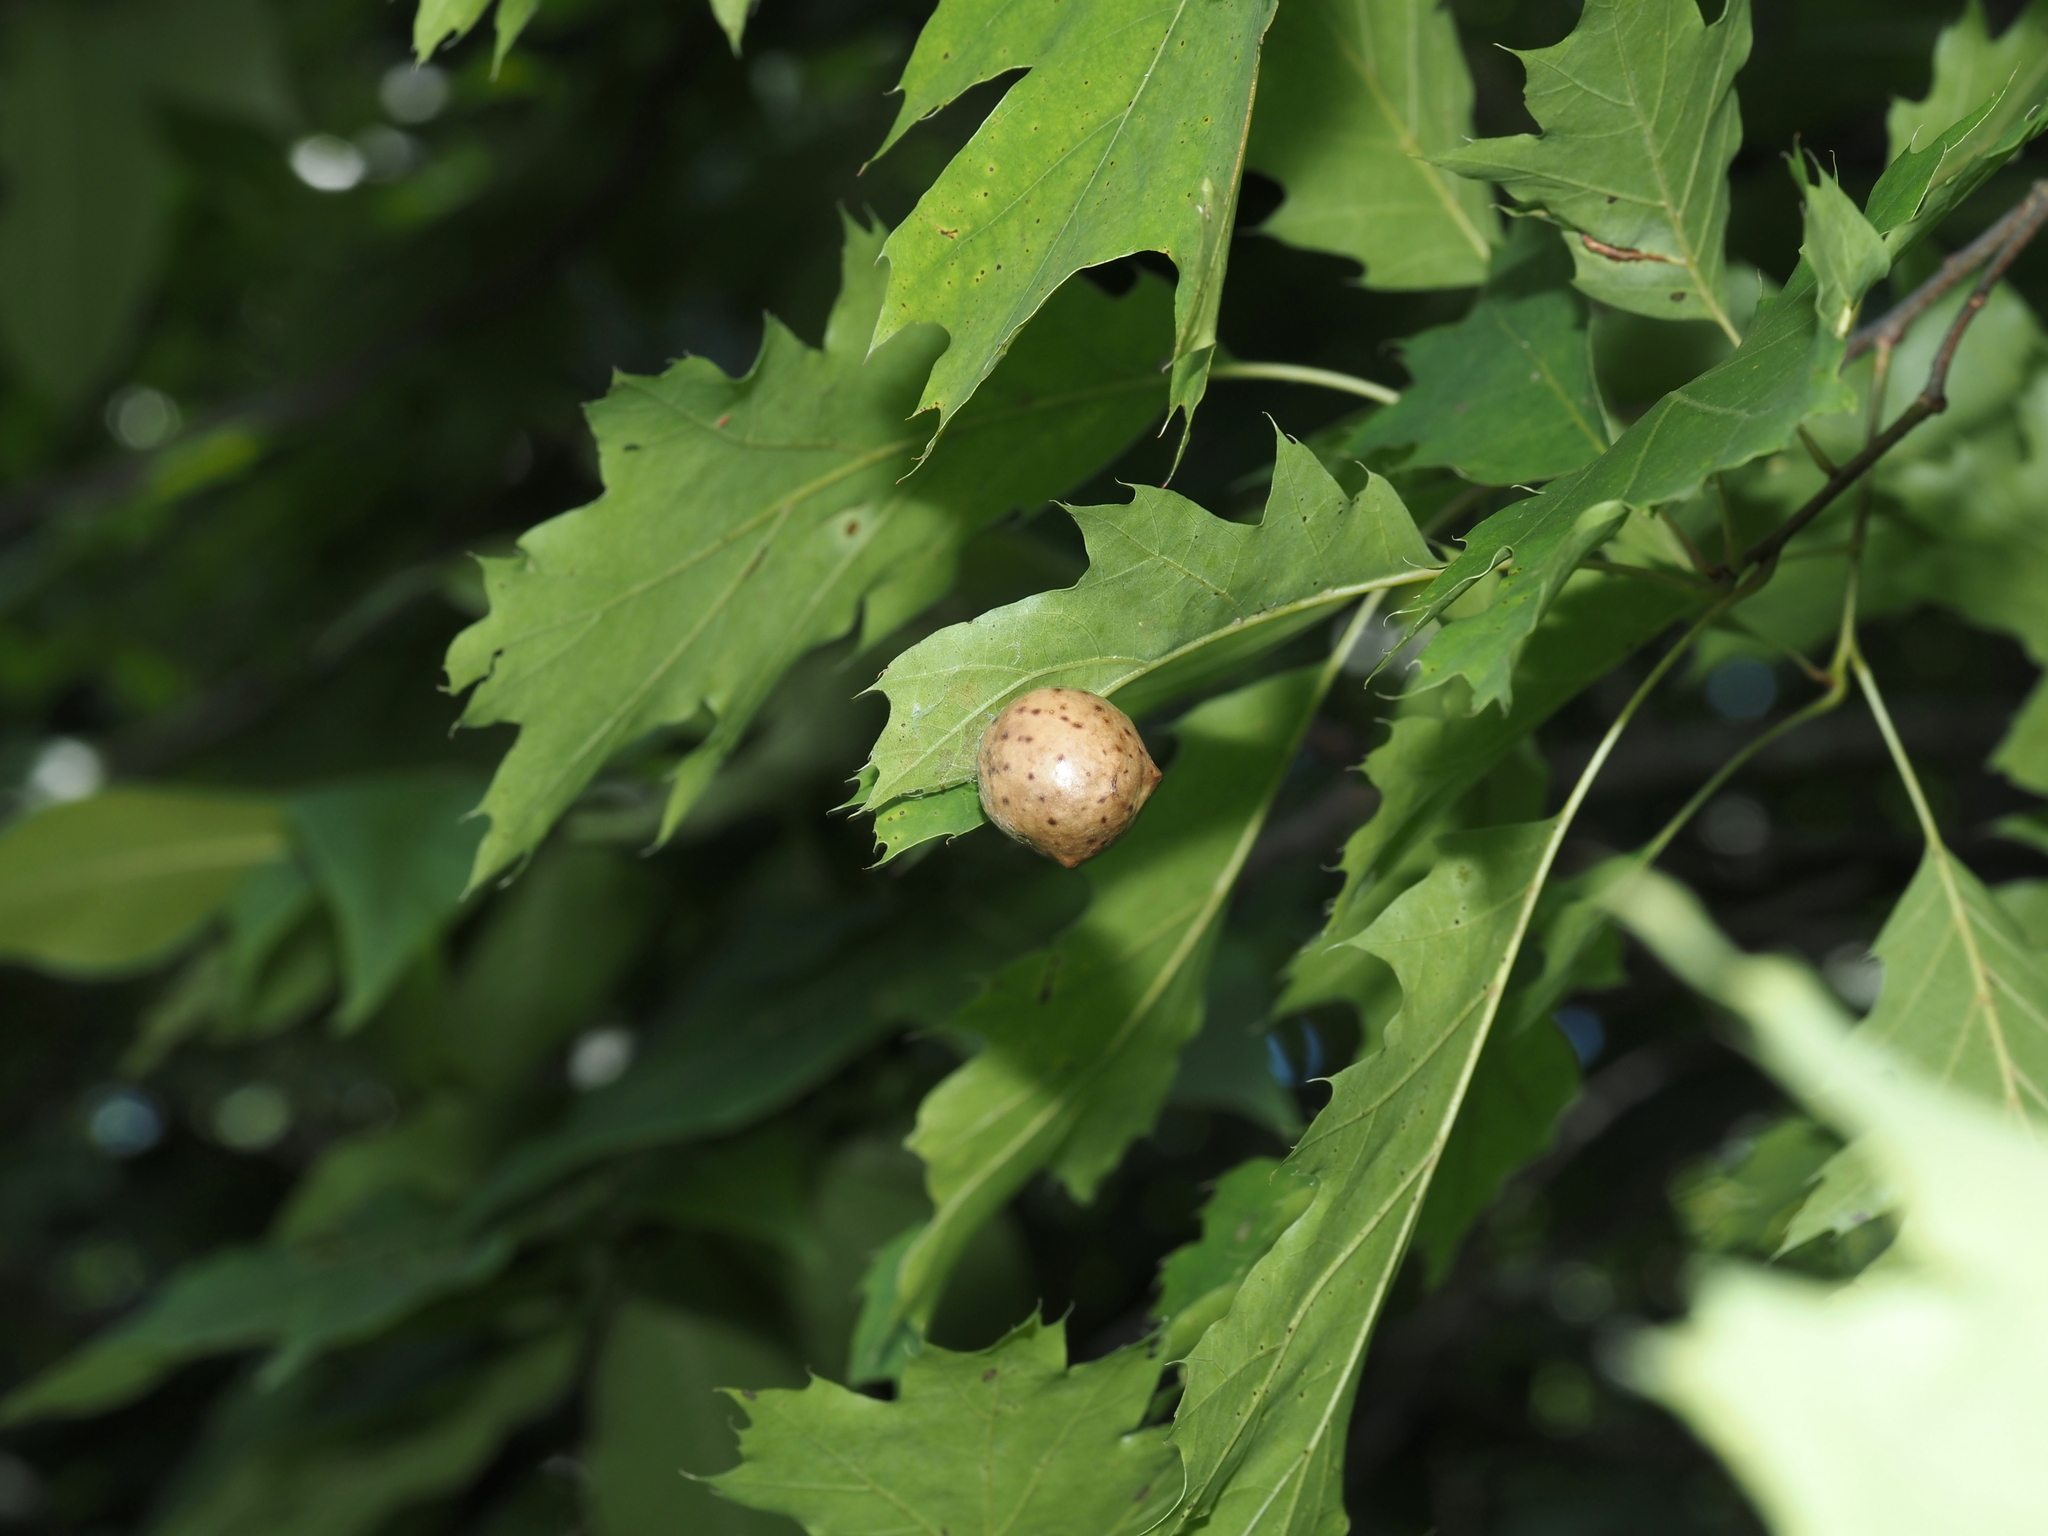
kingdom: Animalia
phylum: Arthropoda
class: Insecta
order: Hymenoptera
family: Cynipidae
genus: Amphibolips
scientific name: Amphibolips
